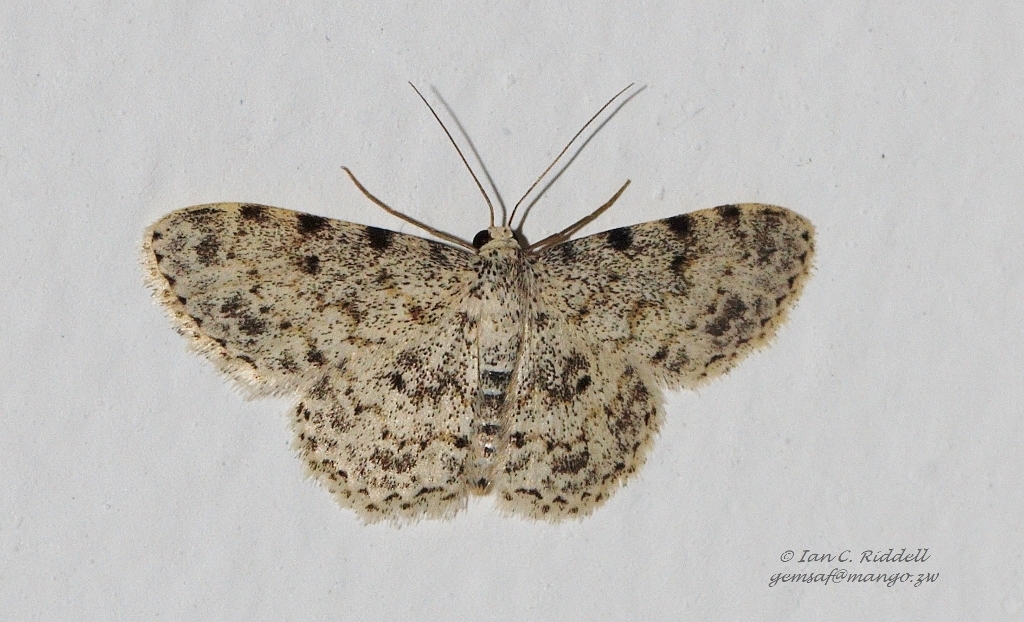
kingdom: Animalia
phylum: Arthropoda
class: Insecta
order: Lepidoptera
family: Geometridae
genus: Scopula
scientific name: Scopula nigrinotata
